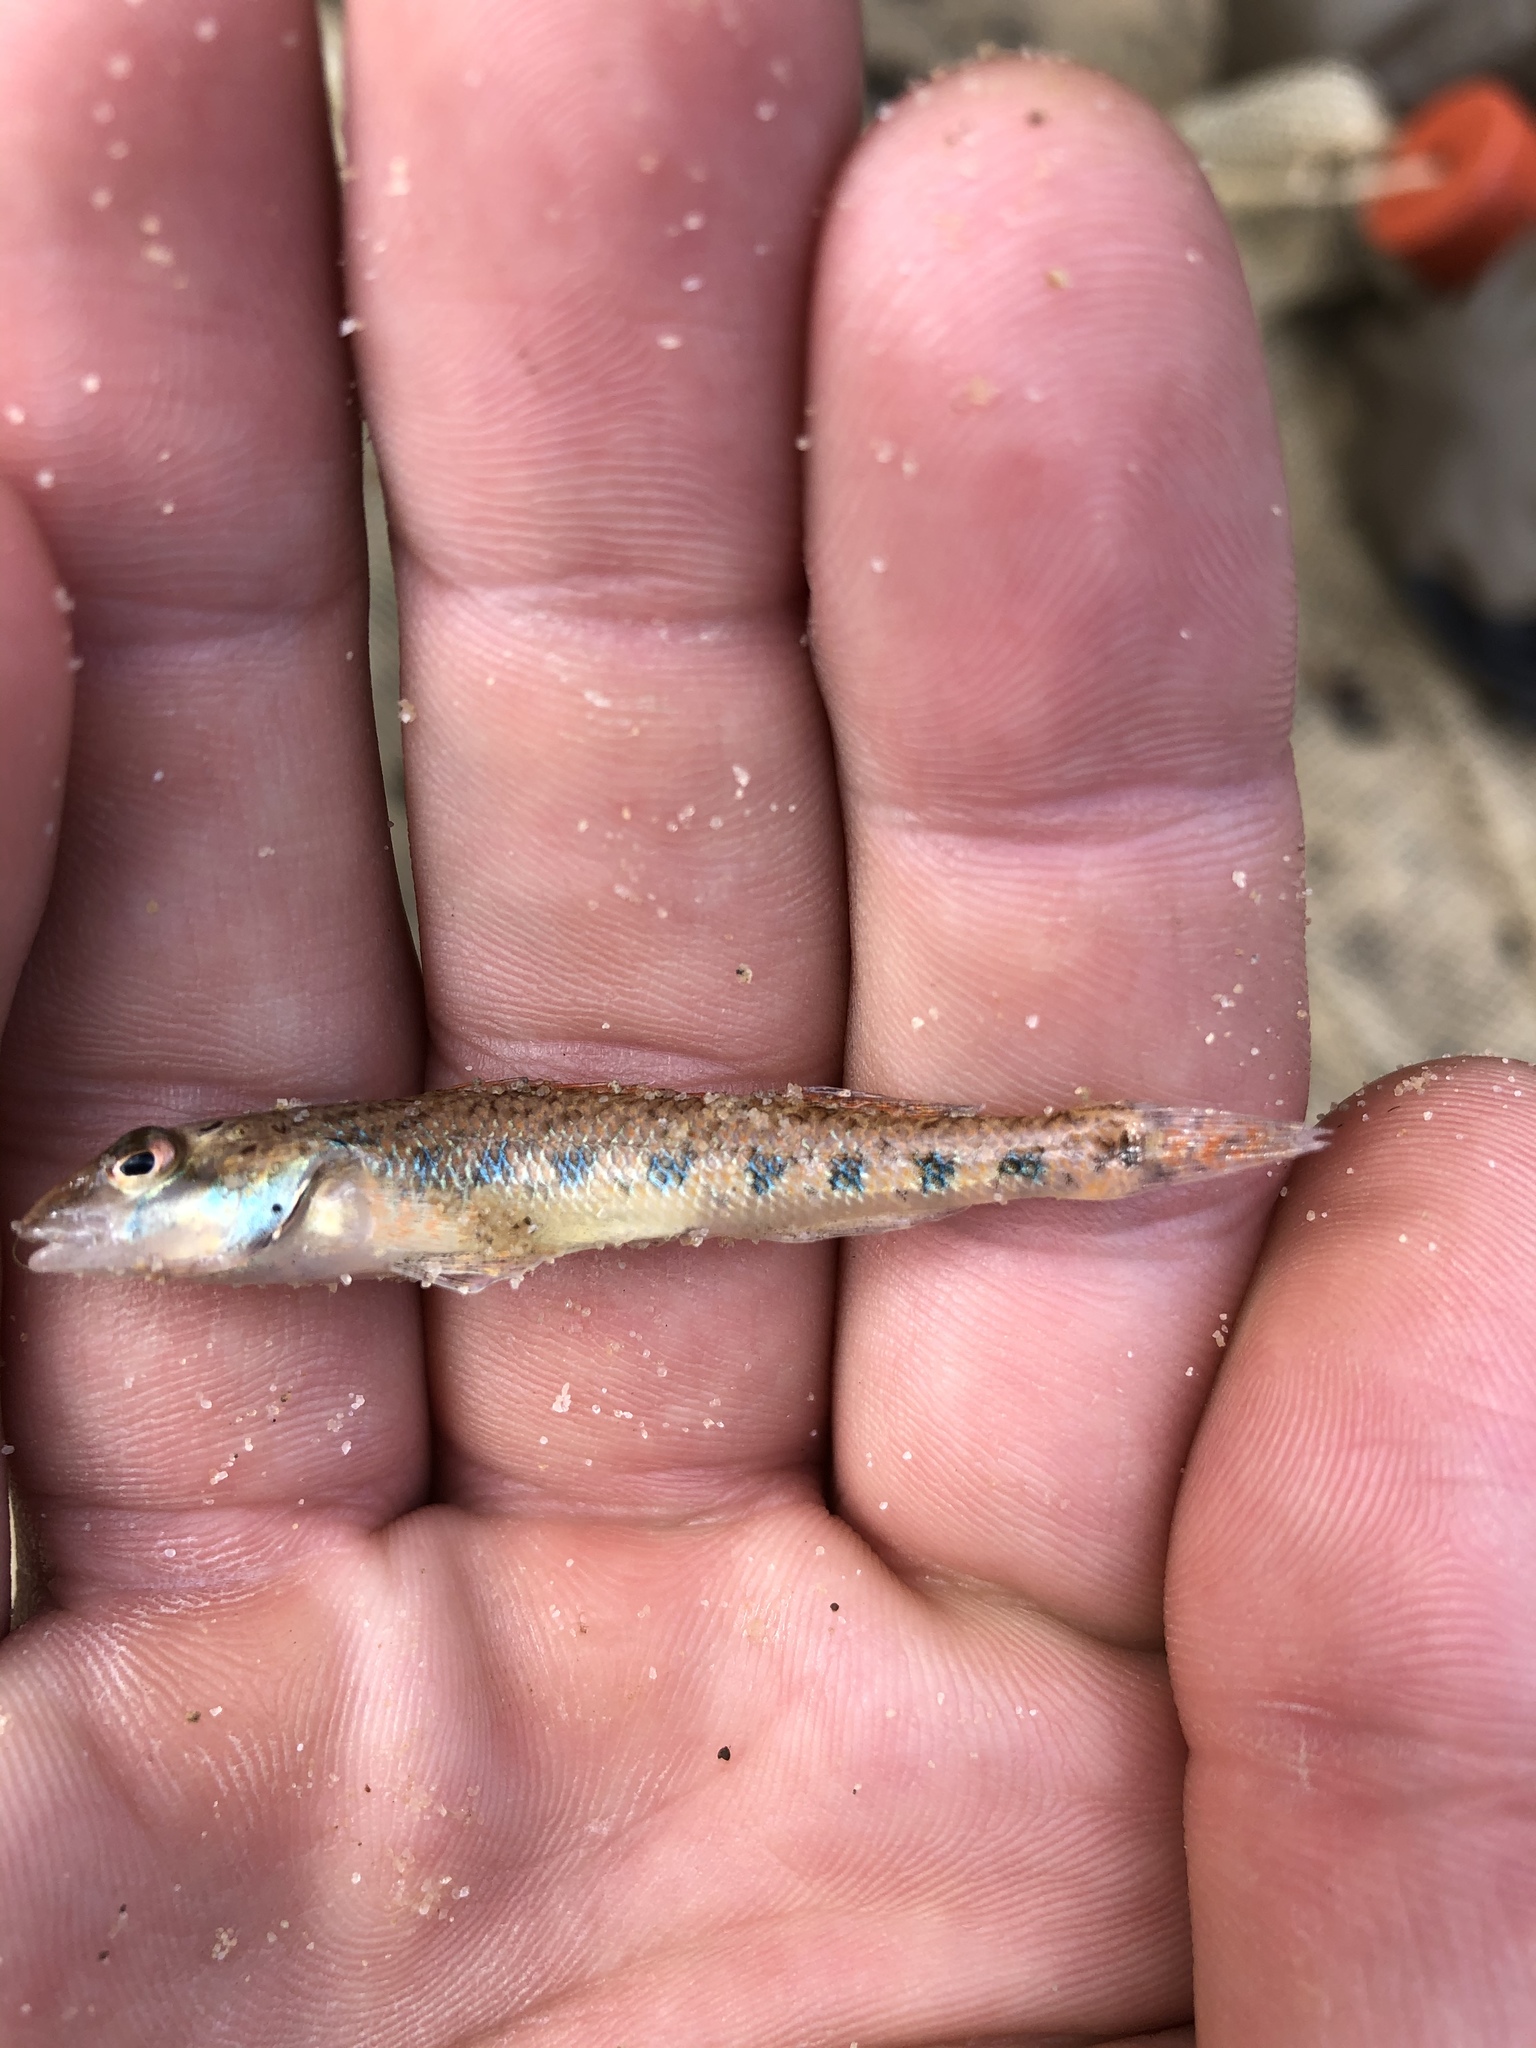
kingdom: Animalia
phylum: Chordata
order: Perciformes
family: Percidae
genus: Etheostoma
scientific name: Etheostoma jessiae
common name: Blueside darter
